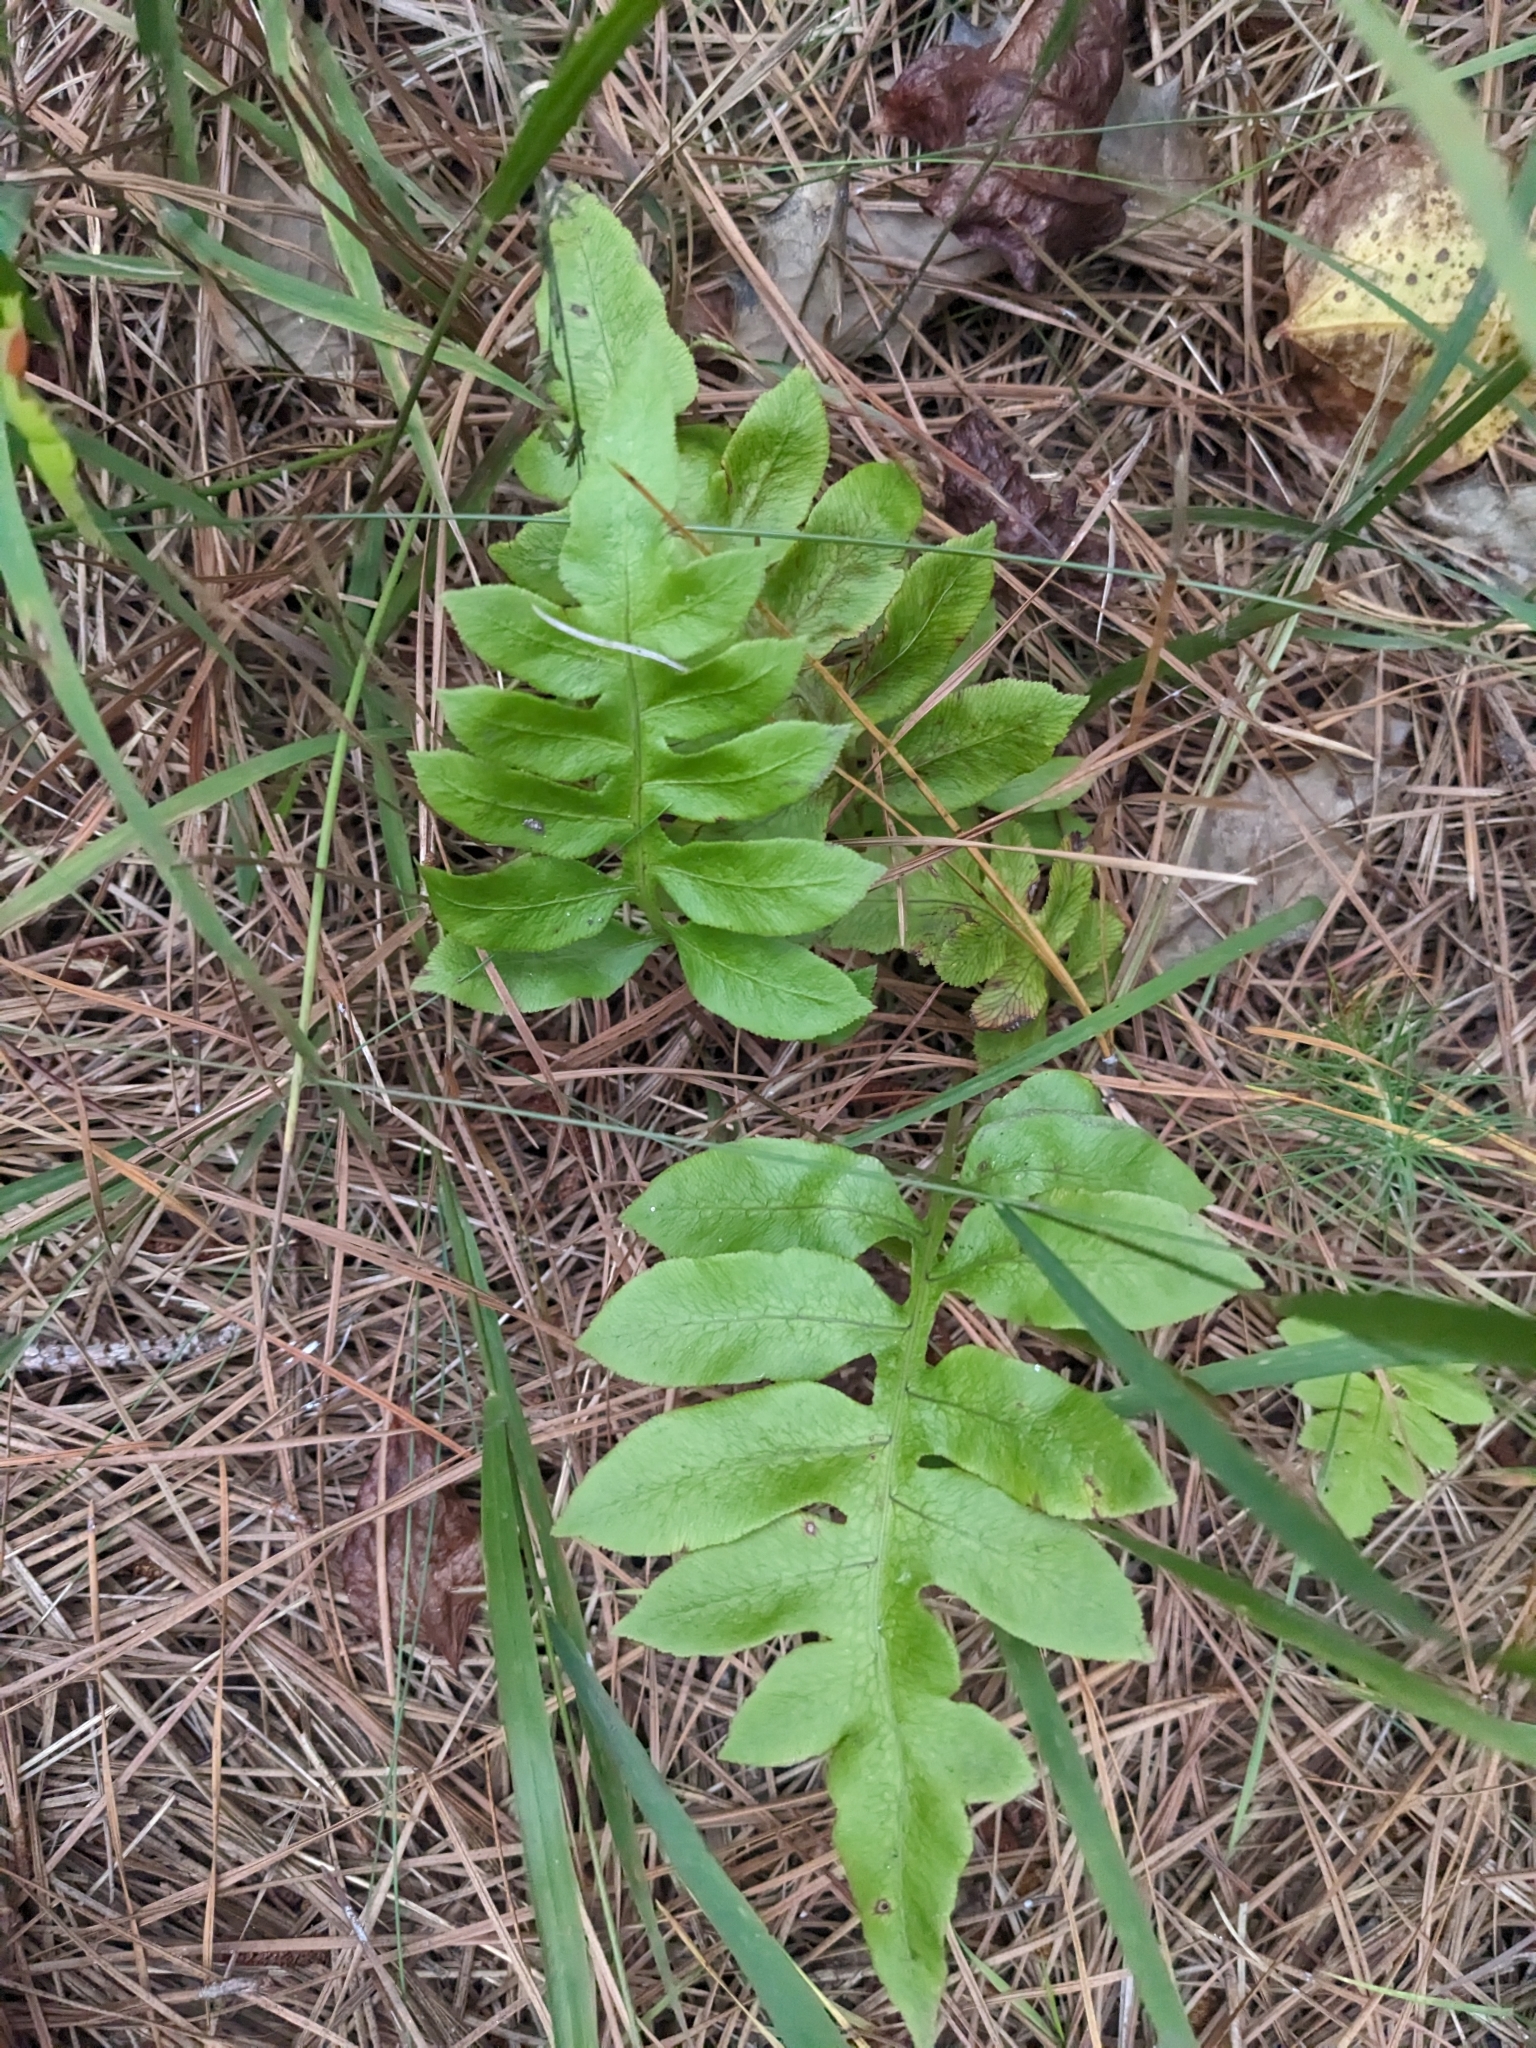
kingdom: Plantae
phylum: Tracheophyta
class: Polypodiopsida
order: Polypodiales
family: Blechnaceae
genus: Lorinseria
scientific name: Lorinseria areolata
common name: Dwarf chain fern
